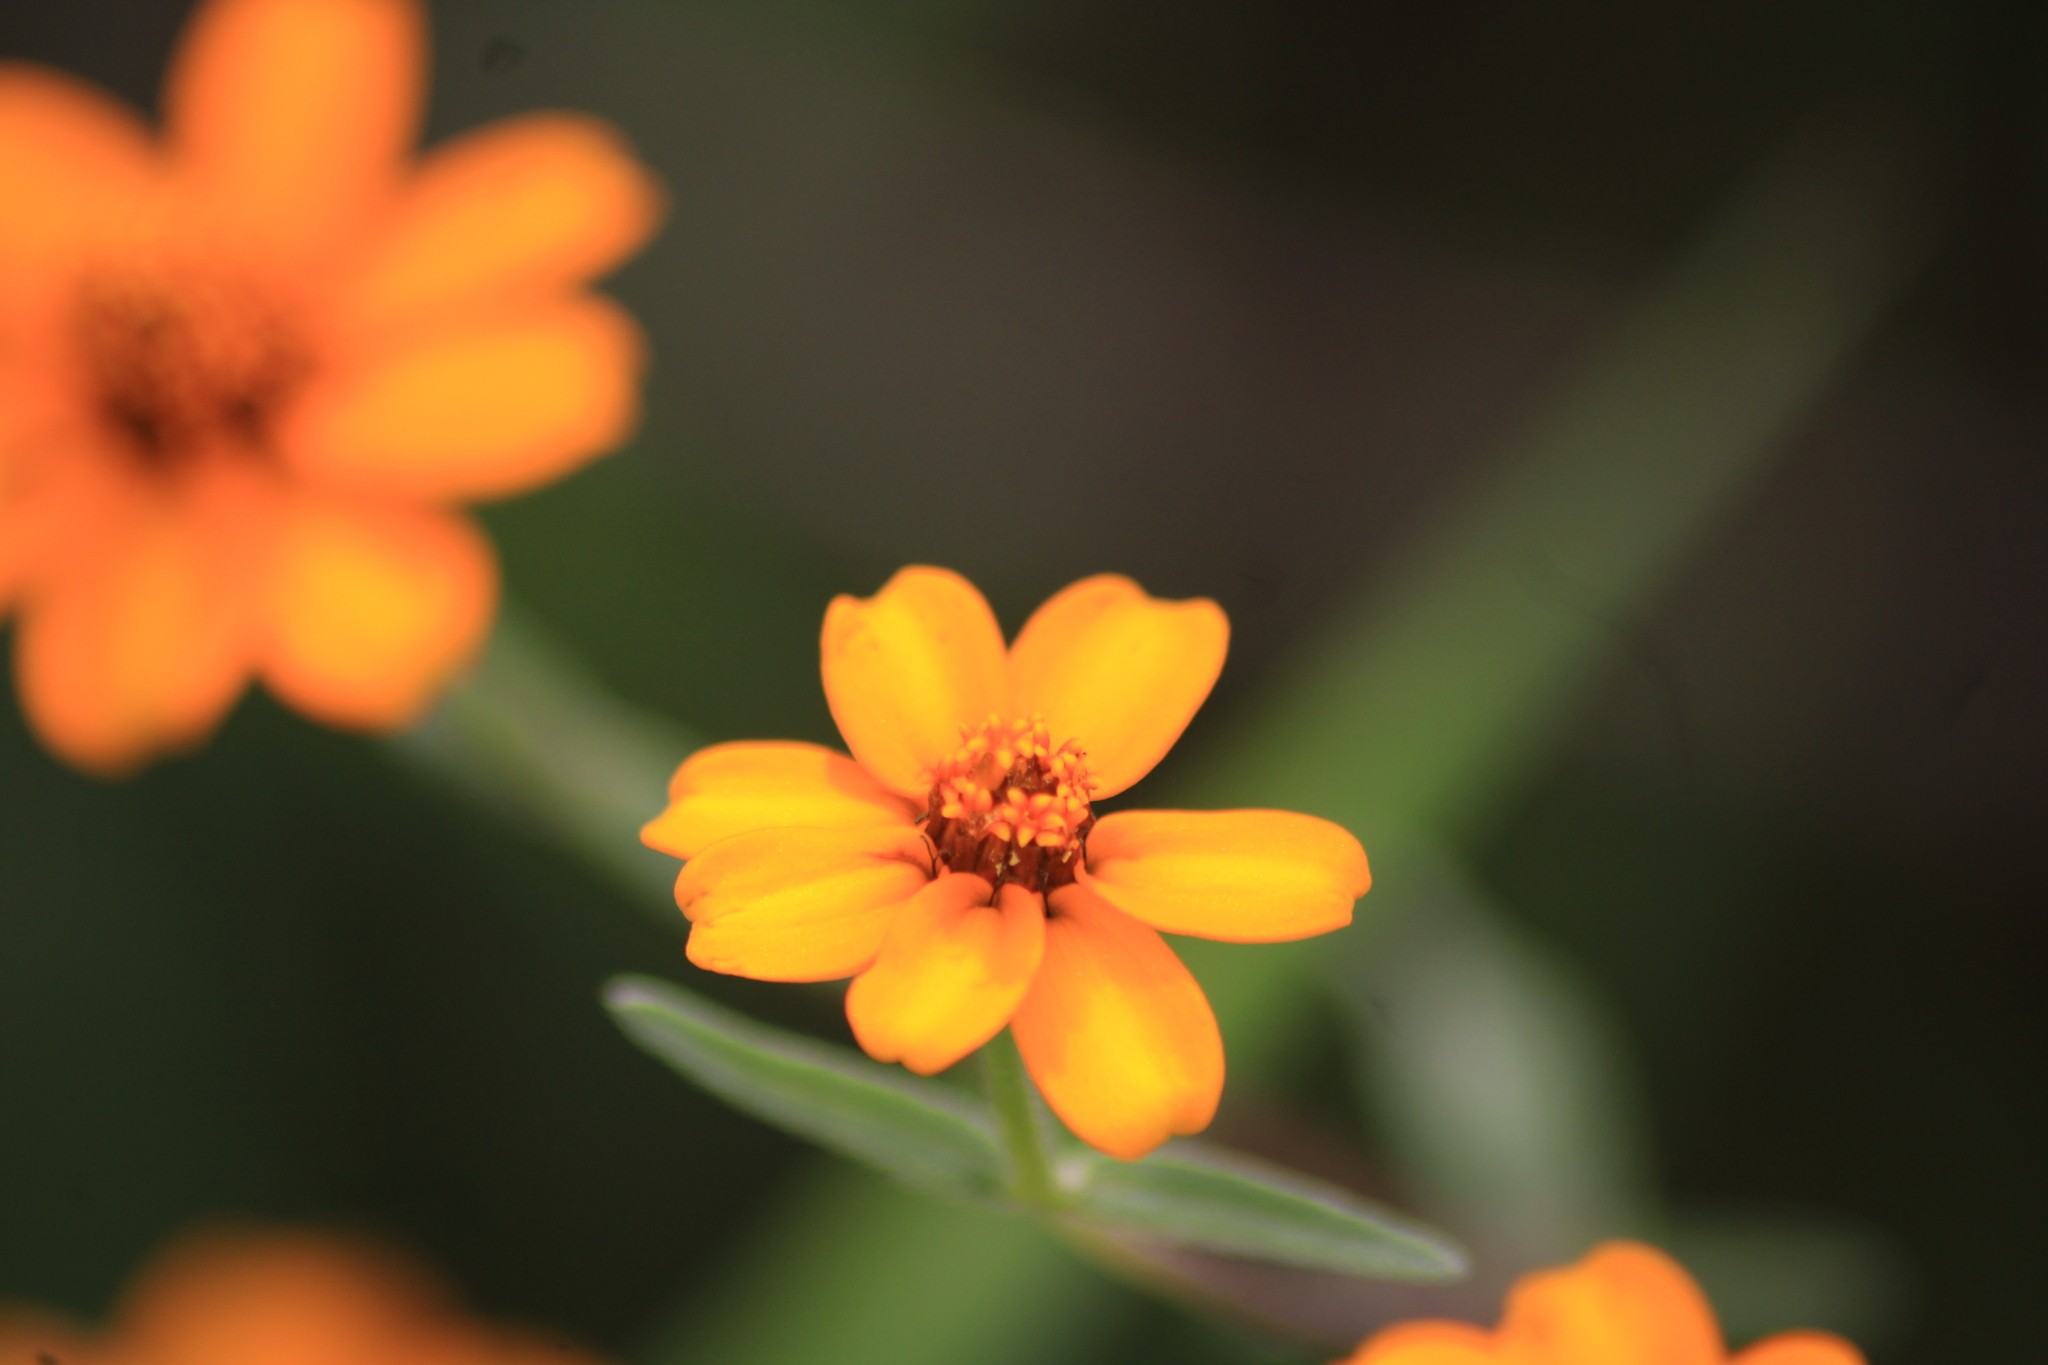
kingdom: Plantae
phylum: Tracheophyta
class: Magnoliopsida
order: Asterales
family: Asteraceae
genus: Adenophyllum
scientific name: Adenophyllum cancellatum
